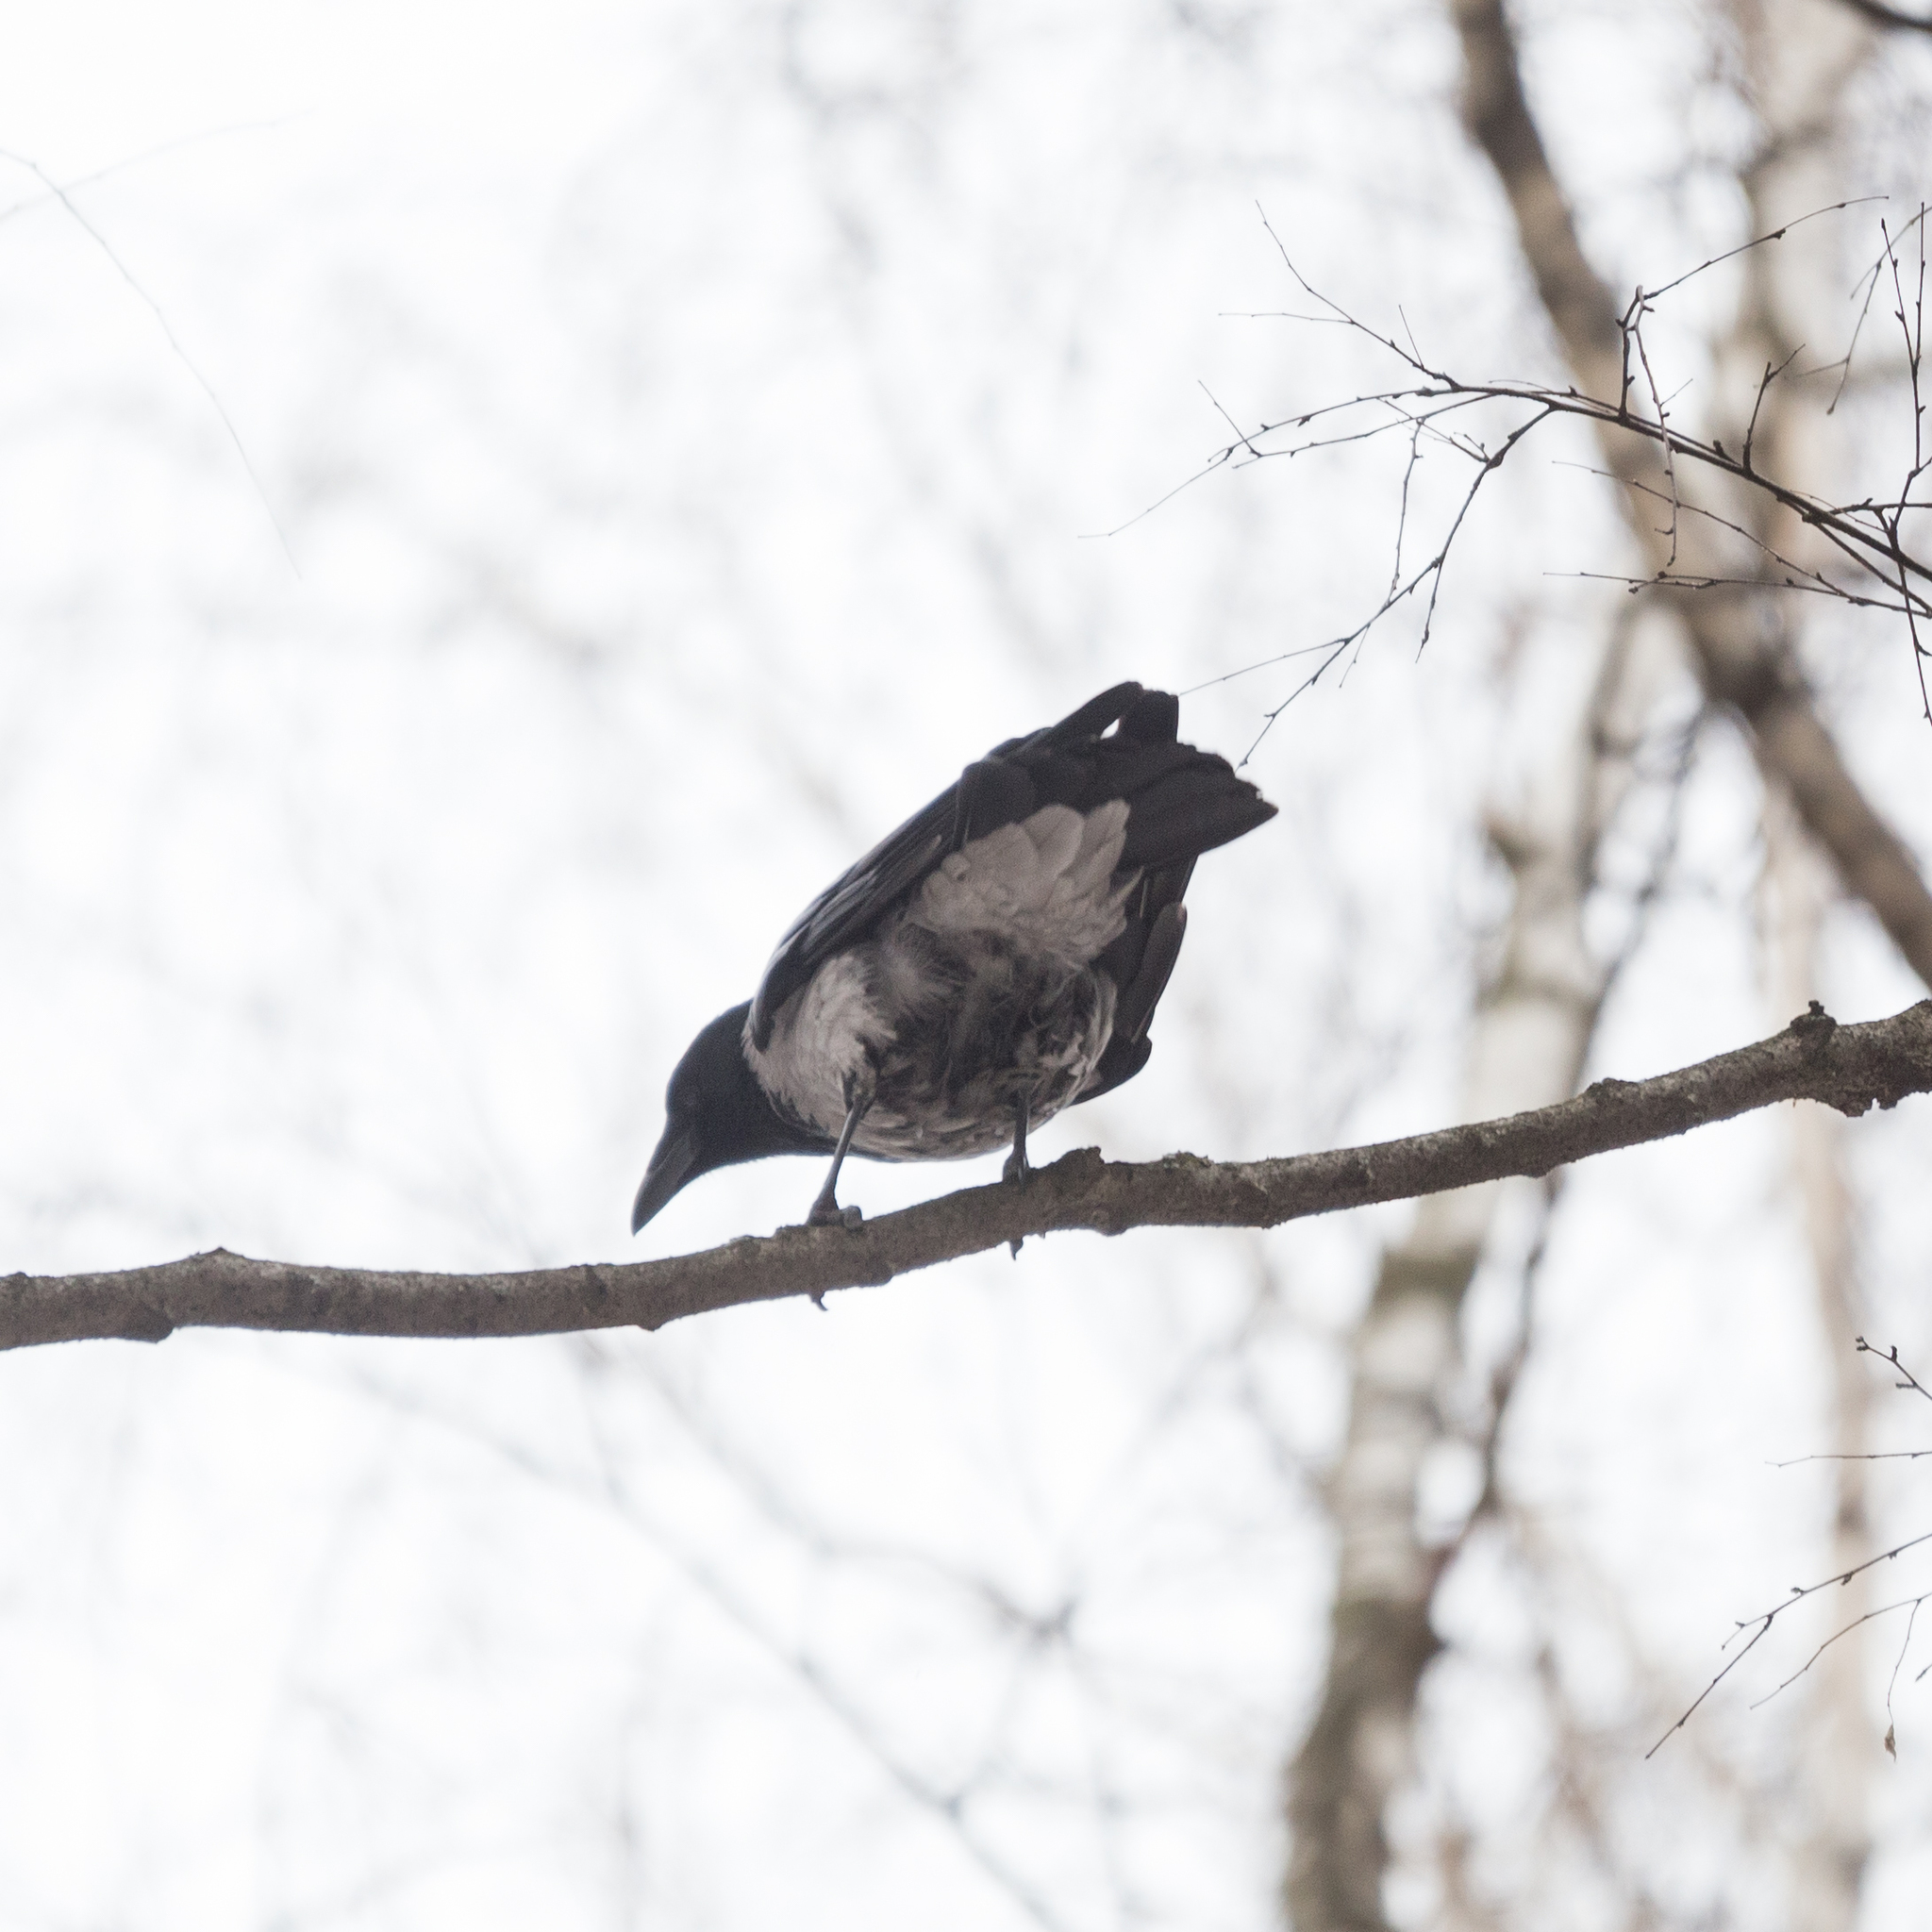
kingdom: Animalia
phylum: Chordata
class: Aves
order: Passeriformes
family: Corvidae
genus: Corvus
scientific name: Corvus cornix
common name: Hooded crow
